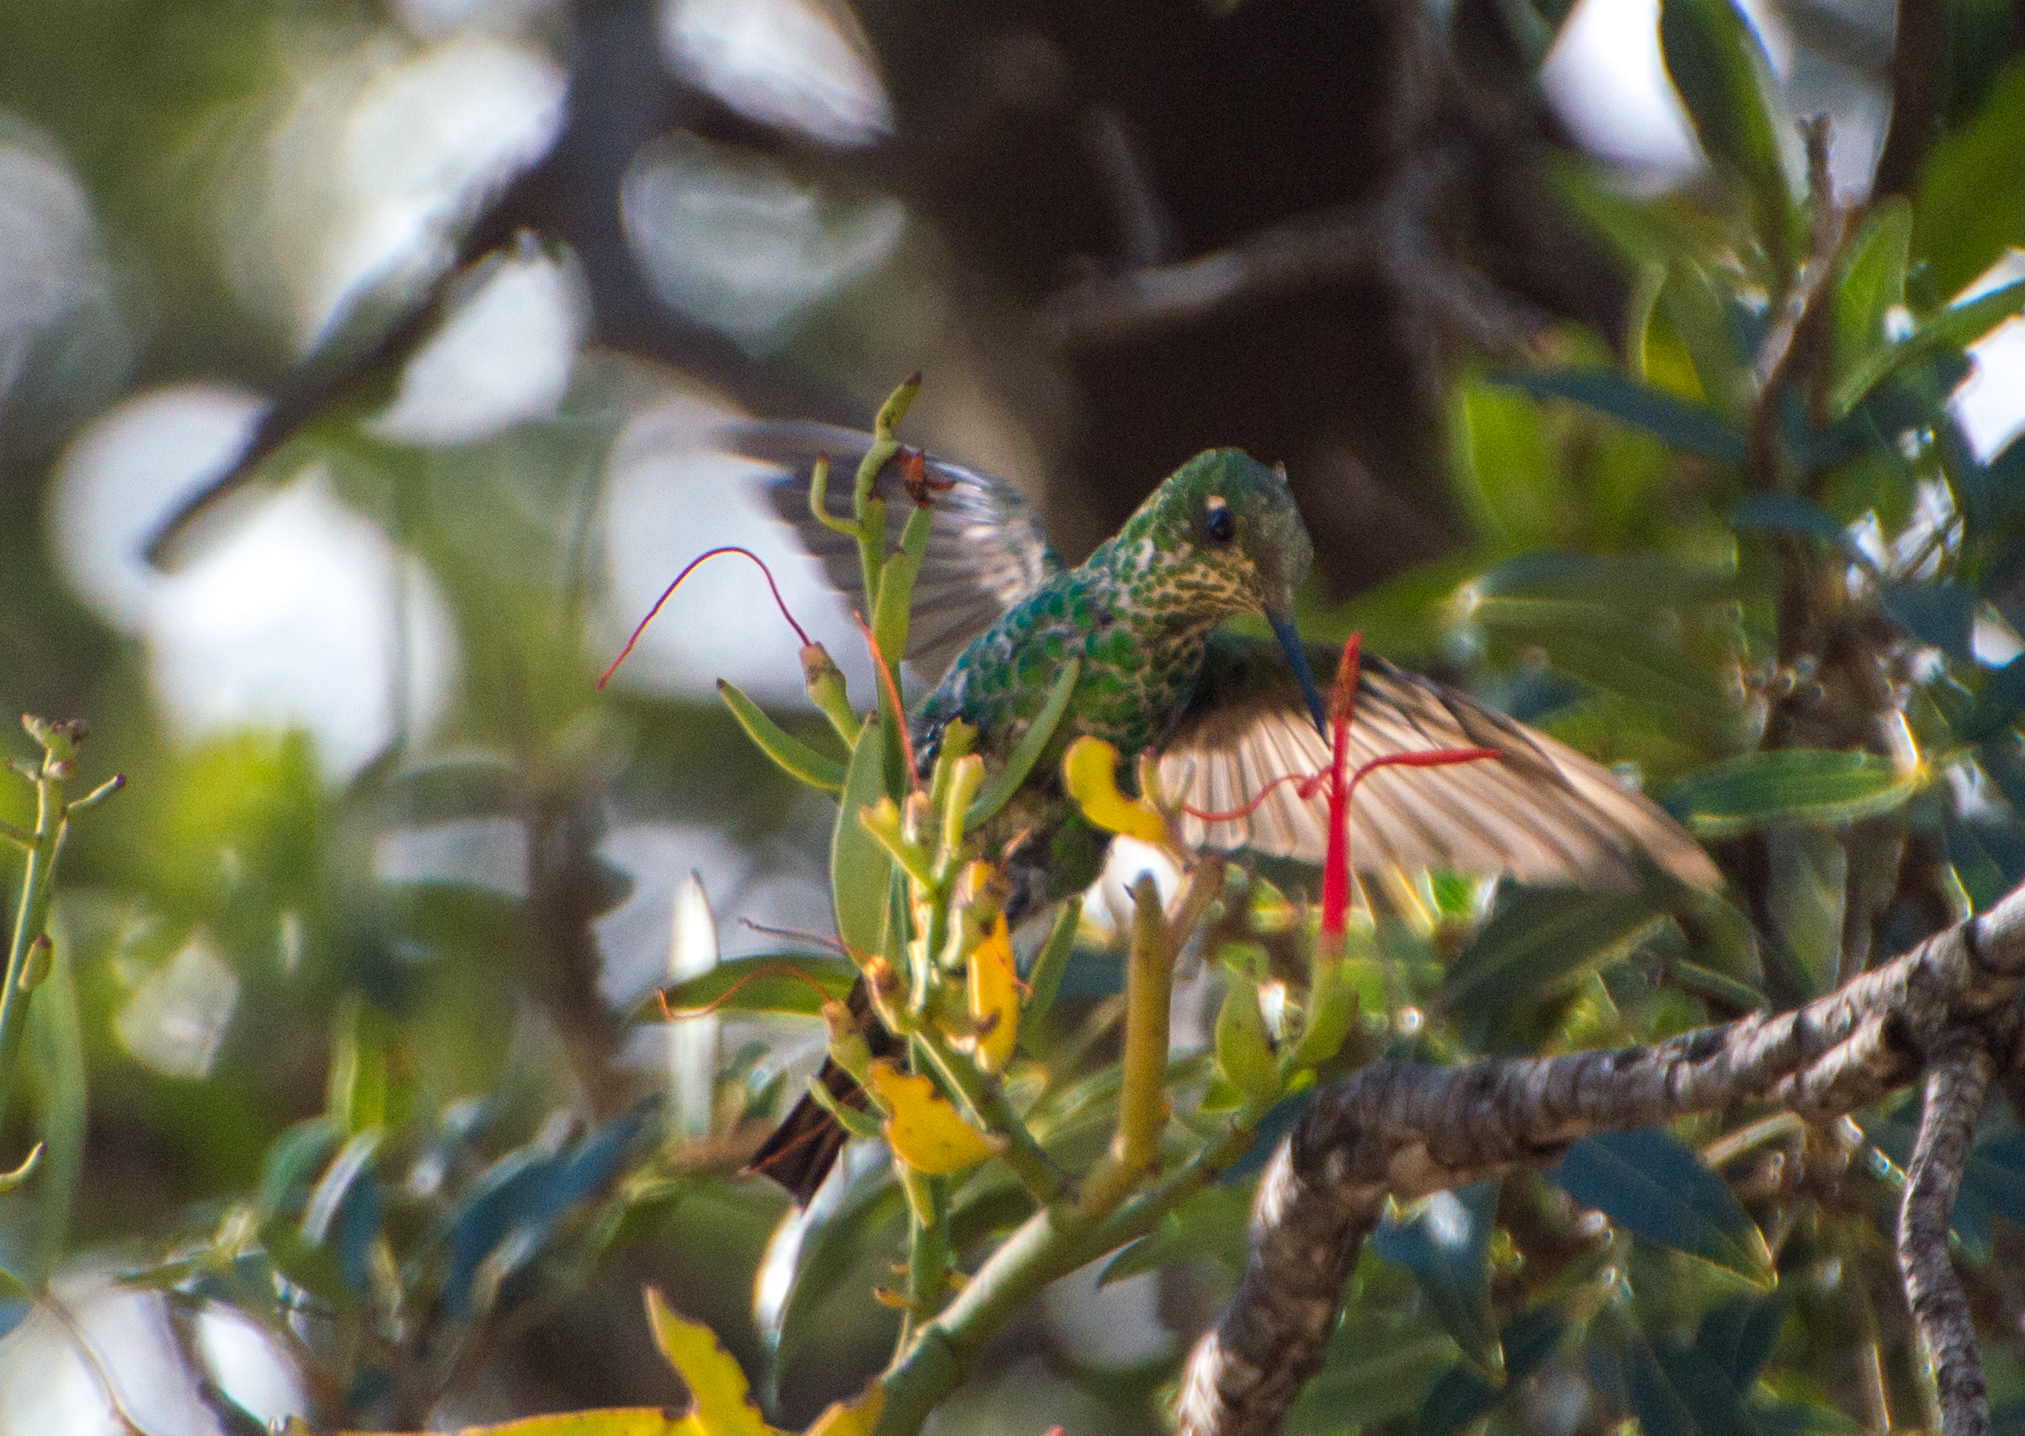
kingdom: Animalia
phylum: Chordata
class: Aves
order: Apodiformes
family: Trochilidae
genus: Sappho
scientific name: Sappho sparganurus
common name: Red-tailed comet
